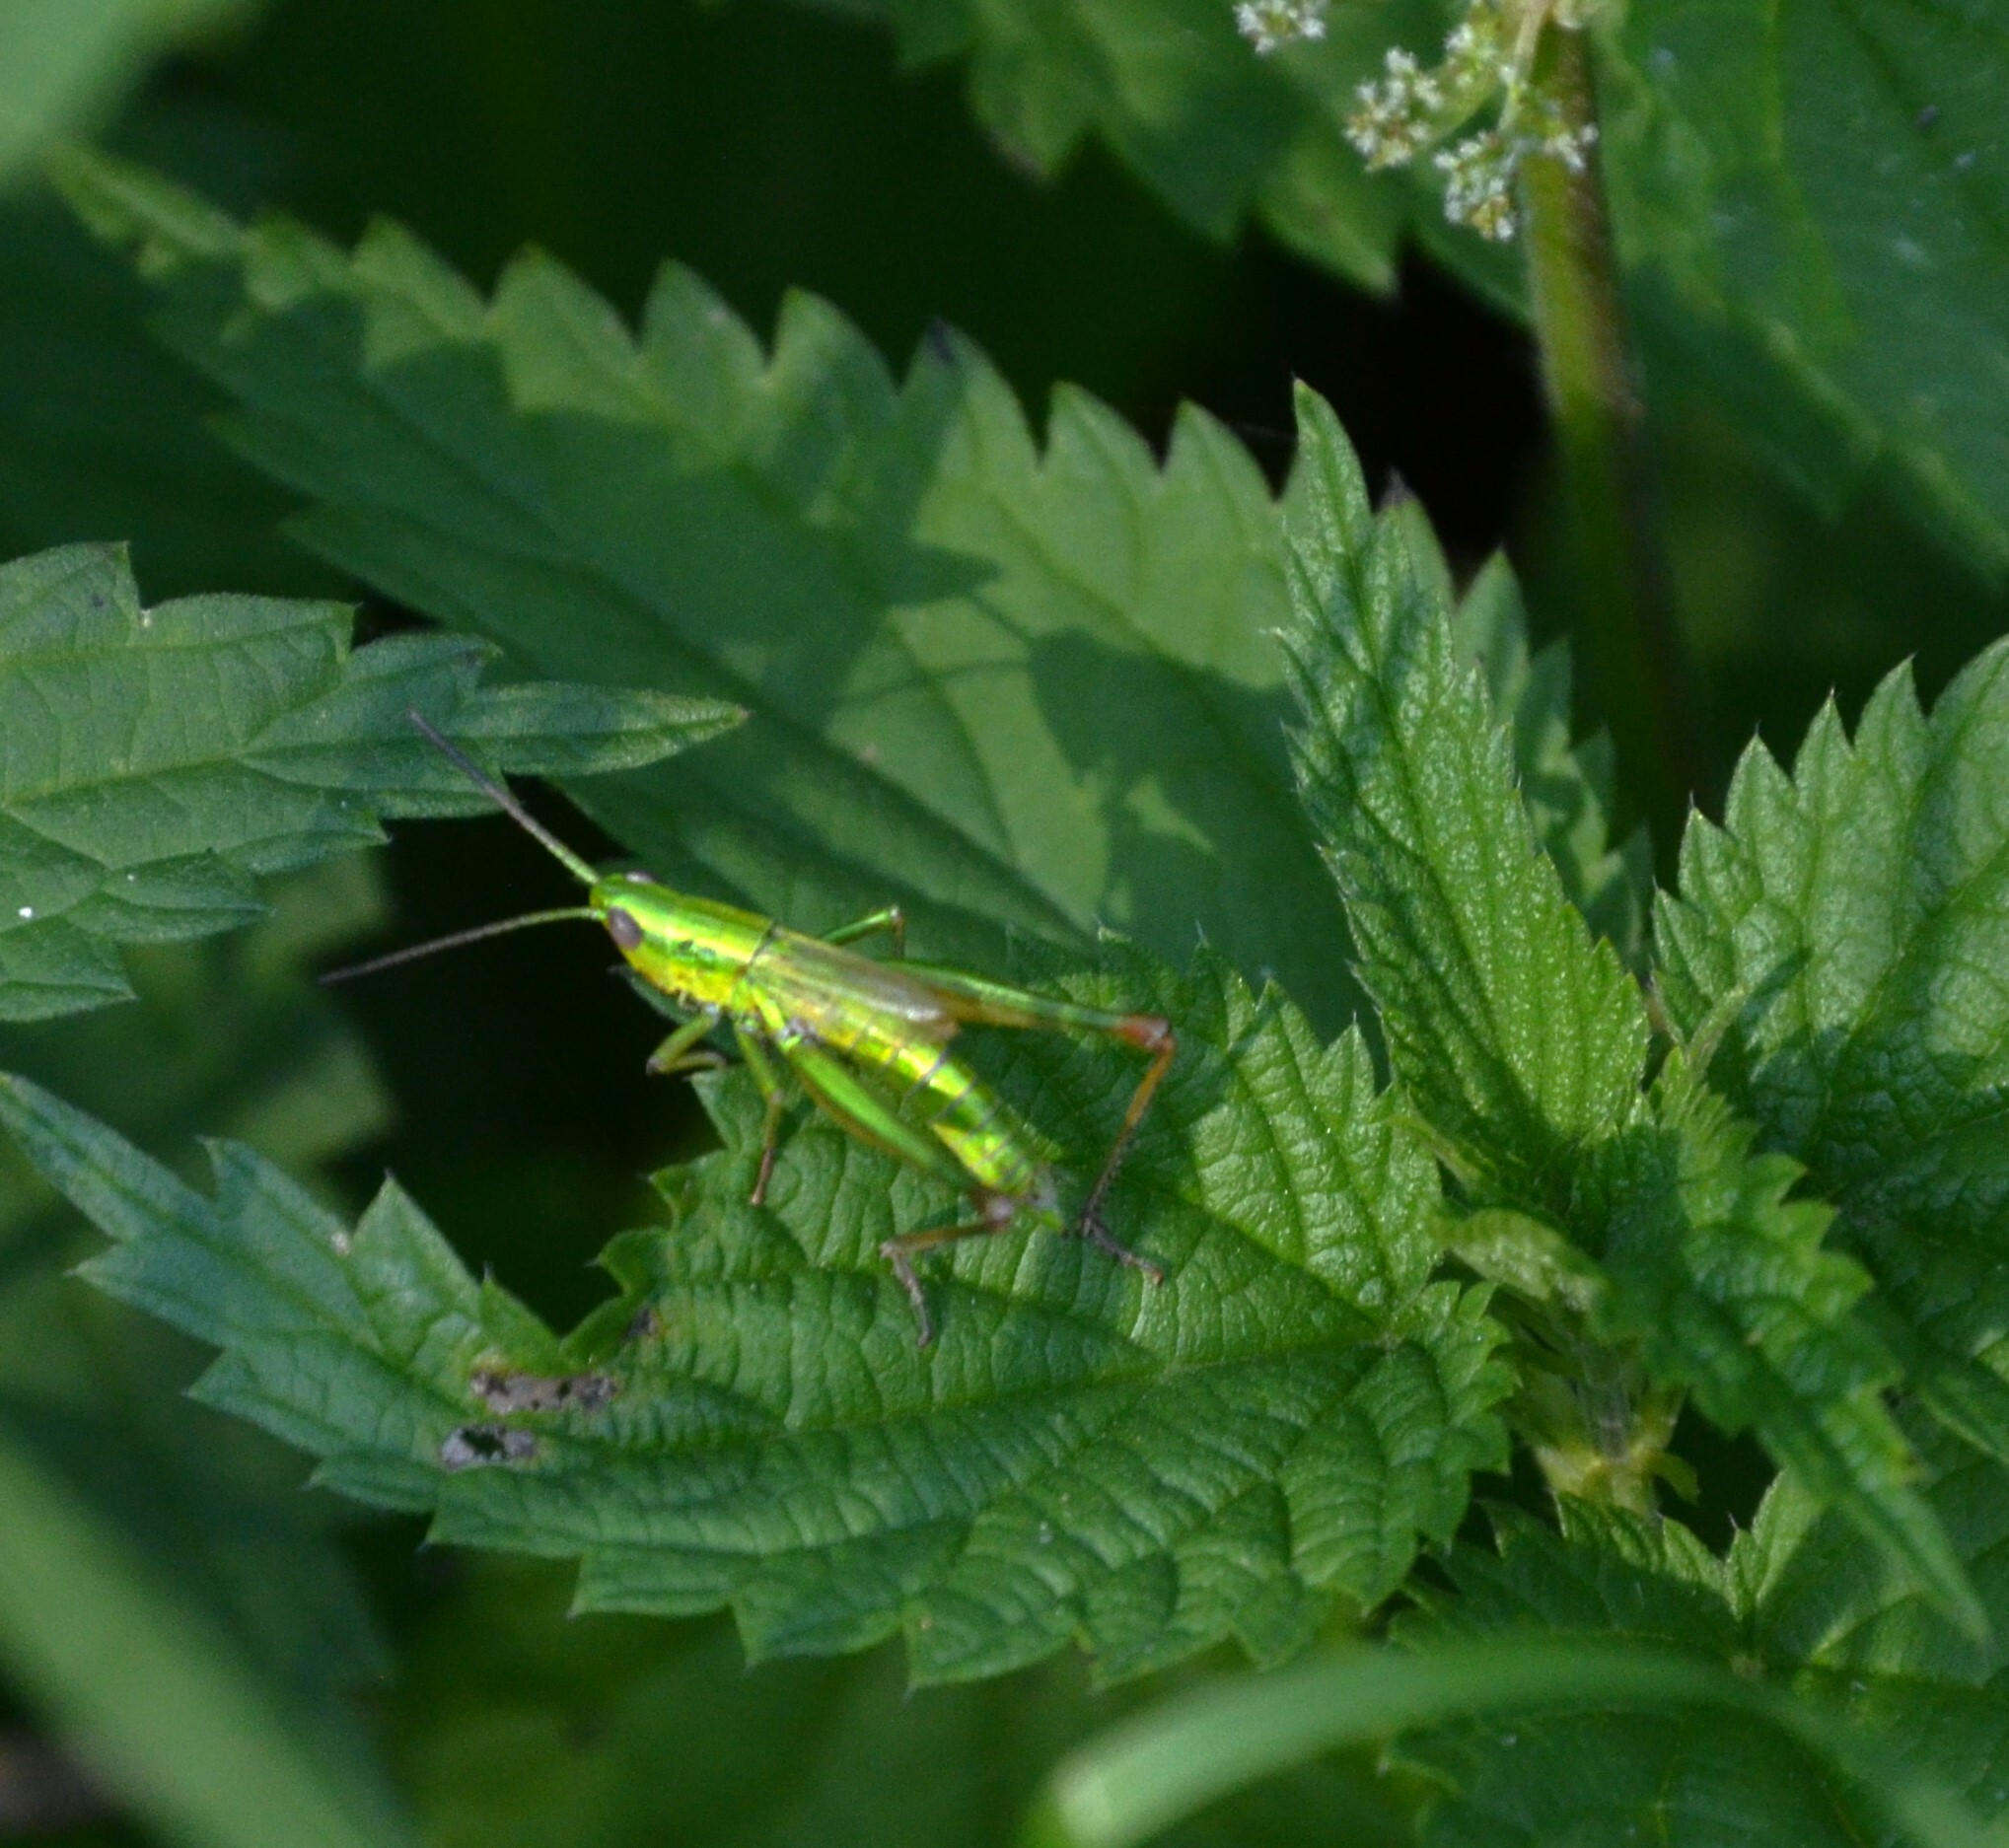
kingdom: Animalia
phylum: Arthropoda
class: Insecta
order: Orthoptera
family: Acrididae
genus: Euthystira
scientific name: Euthystira brachyptera
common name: Small gold grasshopper
